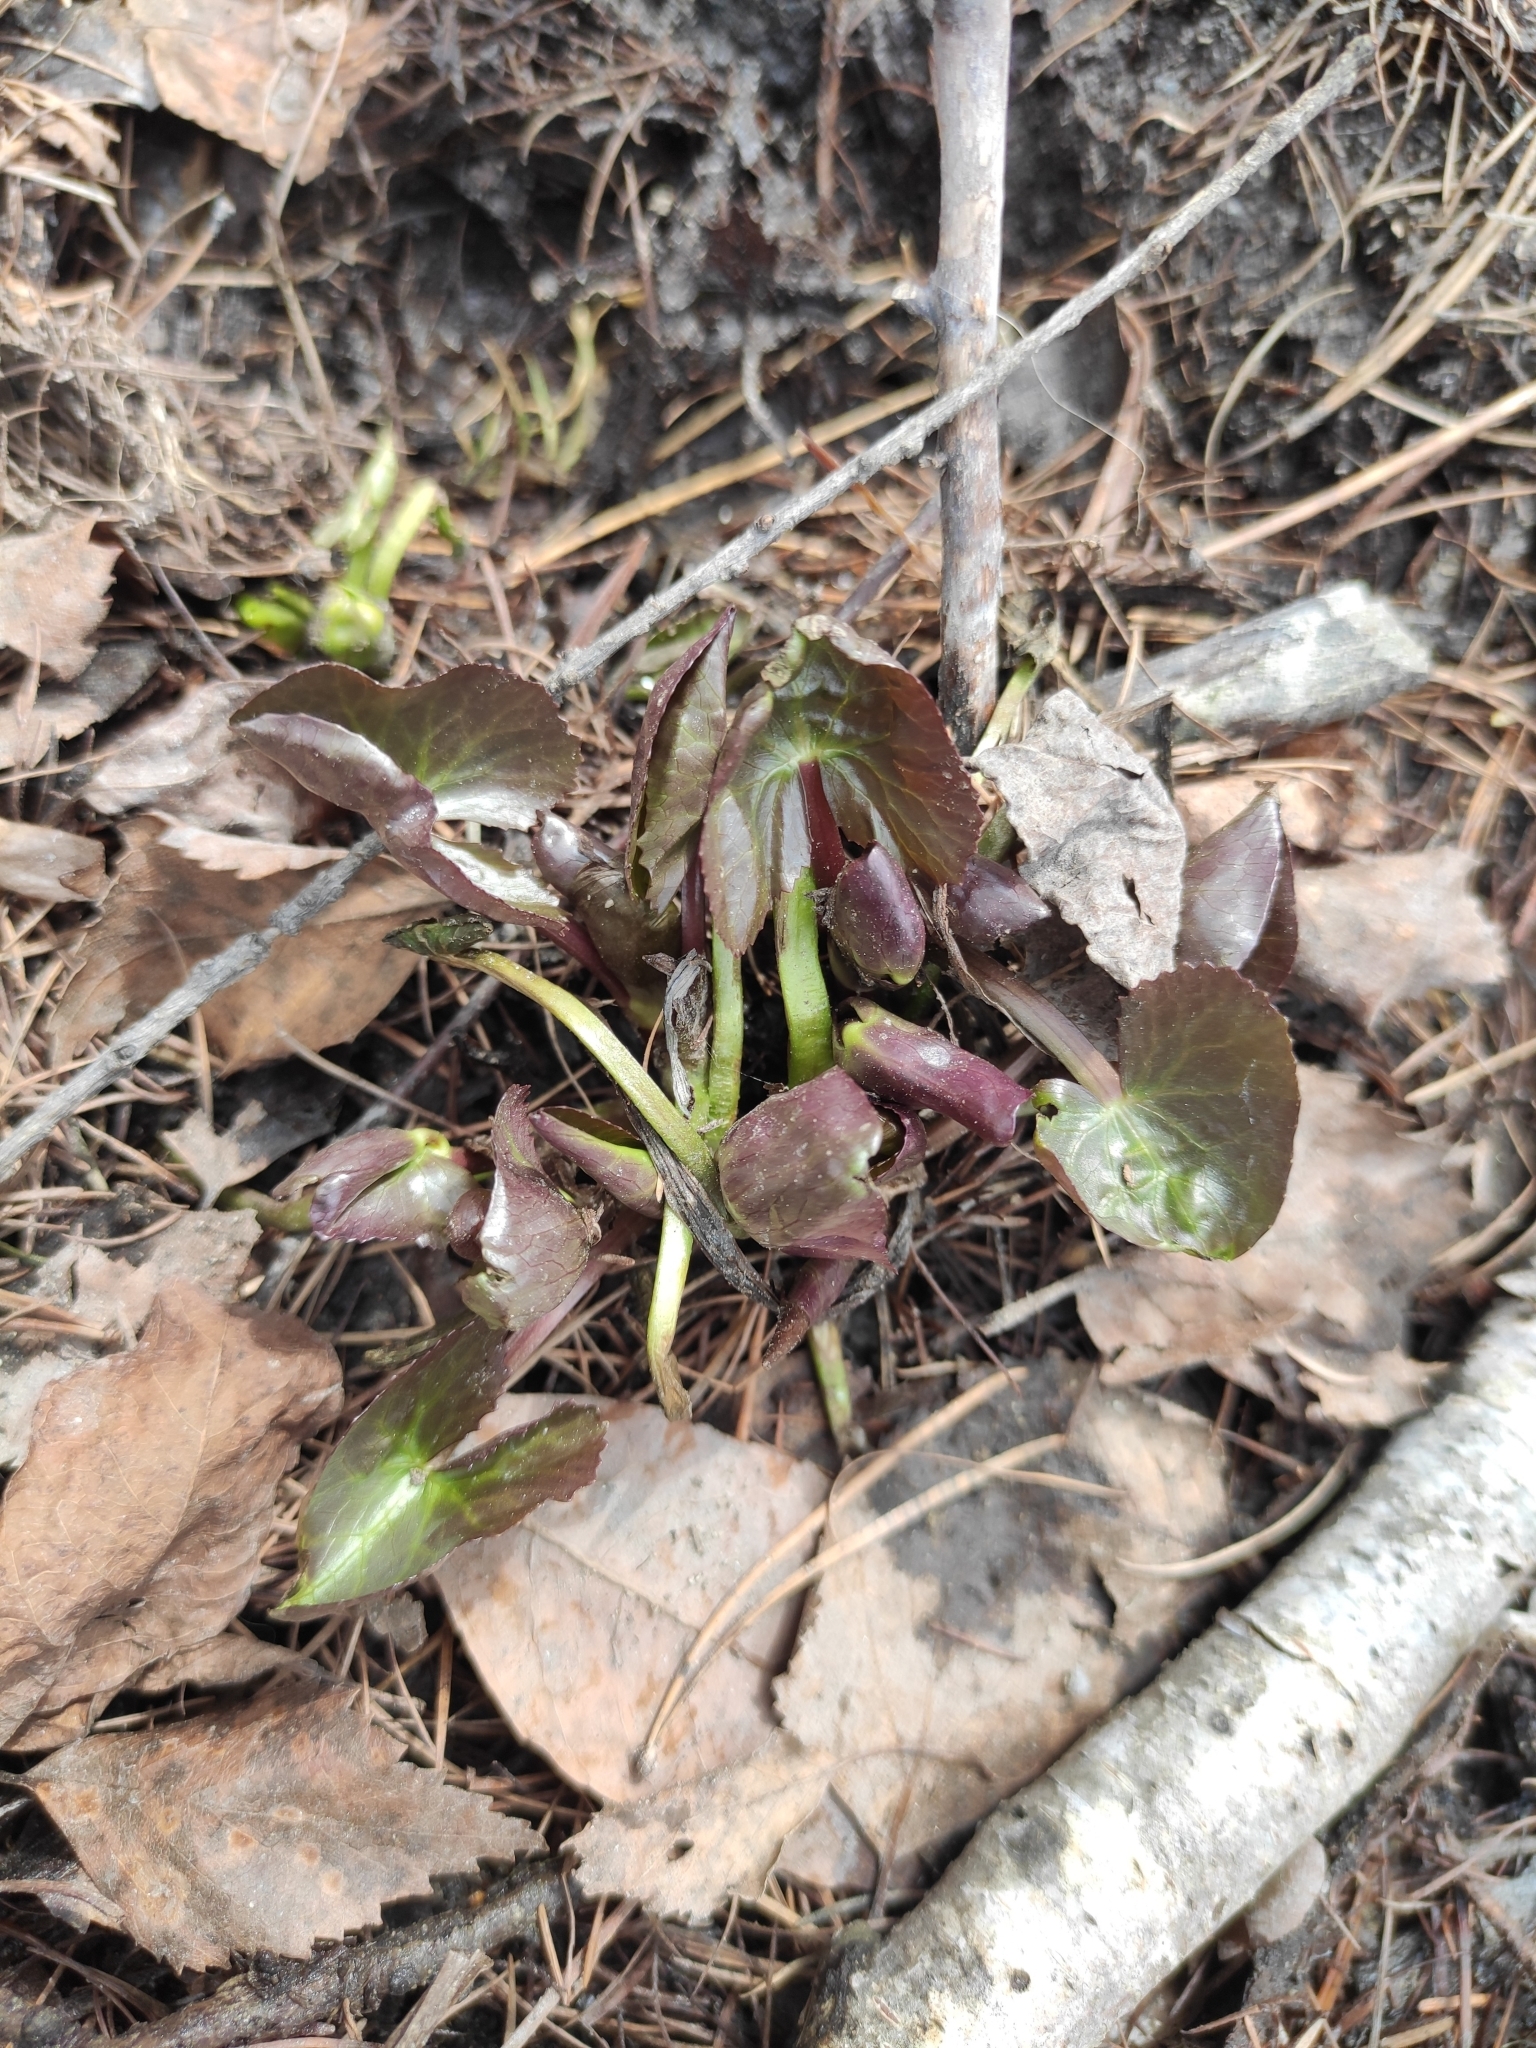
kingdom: Plantae
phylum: Tracheophyta
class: Magnoliopsida
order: Ranunculales
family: Ranunculaceae
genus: Caltha
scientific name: Caltha palustris
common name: Marsh marigold
